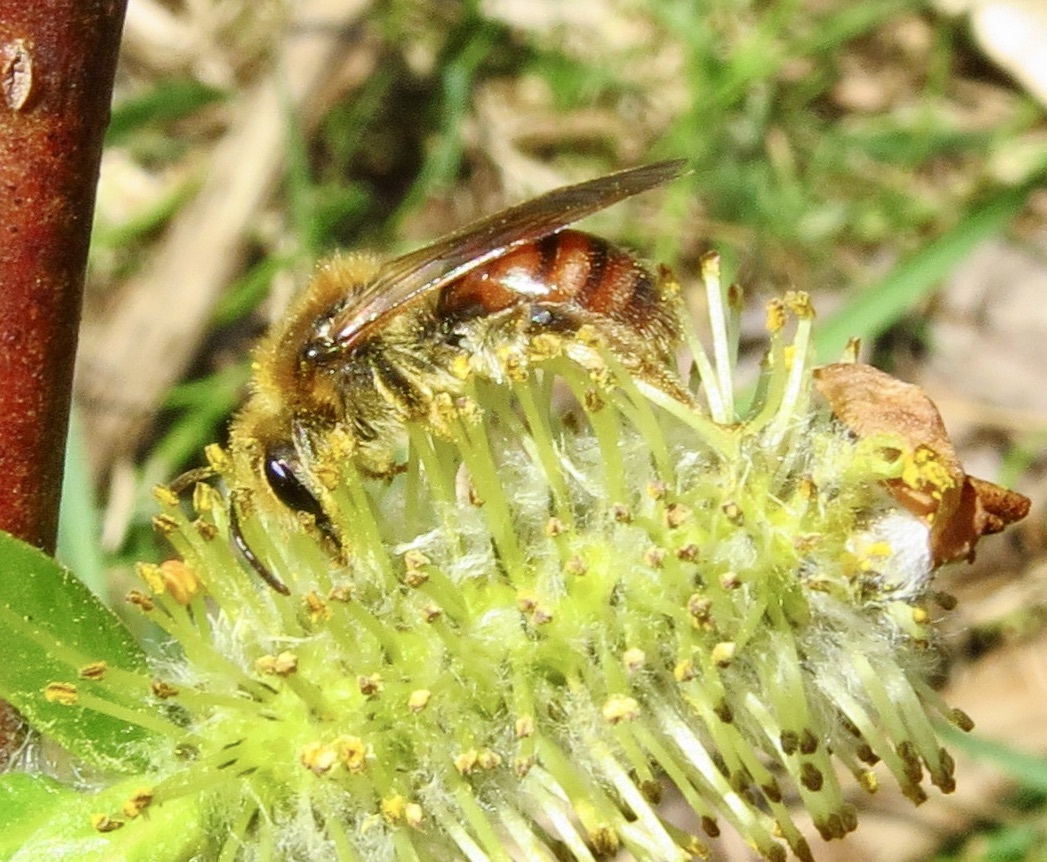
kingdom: Animalia
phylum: Arthropoda
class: Insecta
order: Hymenoptera
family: Andrenidae
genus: Andrena
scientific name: Andrena erythrogaster
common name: Red-tailed mining bee
